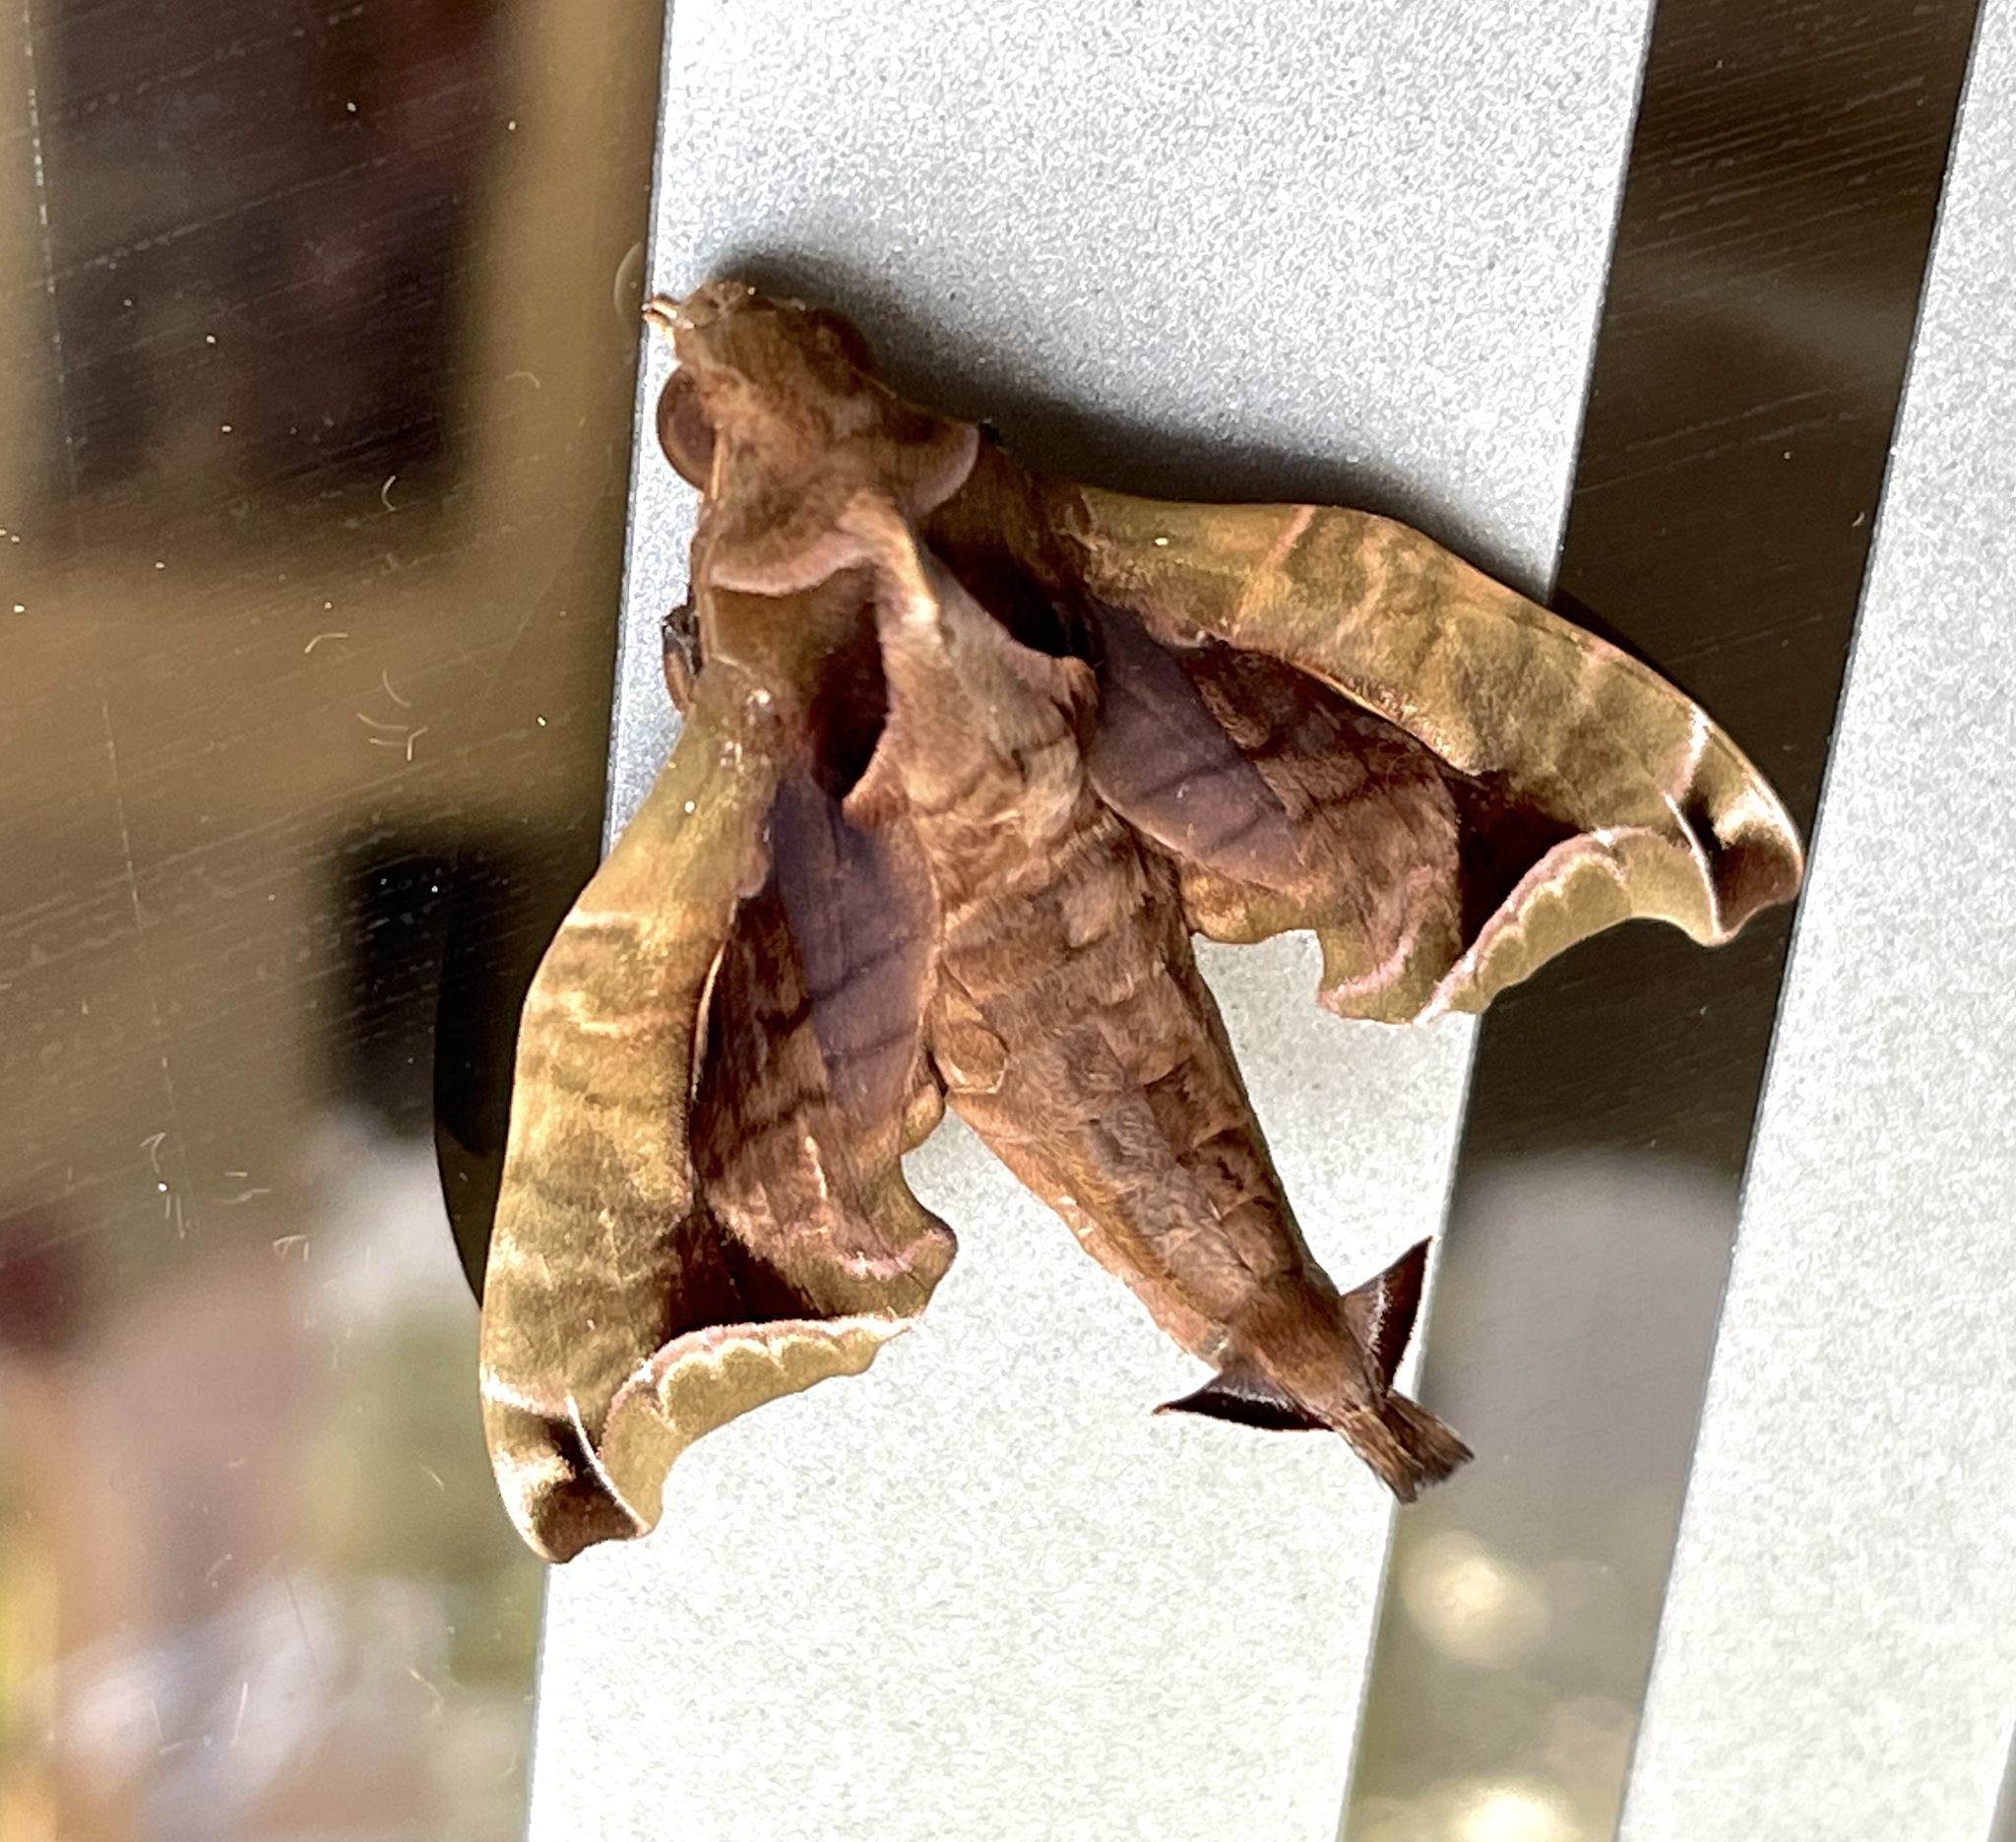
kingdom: Animalia
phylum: Arthropoda
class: Insecta
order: Lepidoptera
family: Sphingidae
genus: Enyo
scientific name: Enyo gorgon
